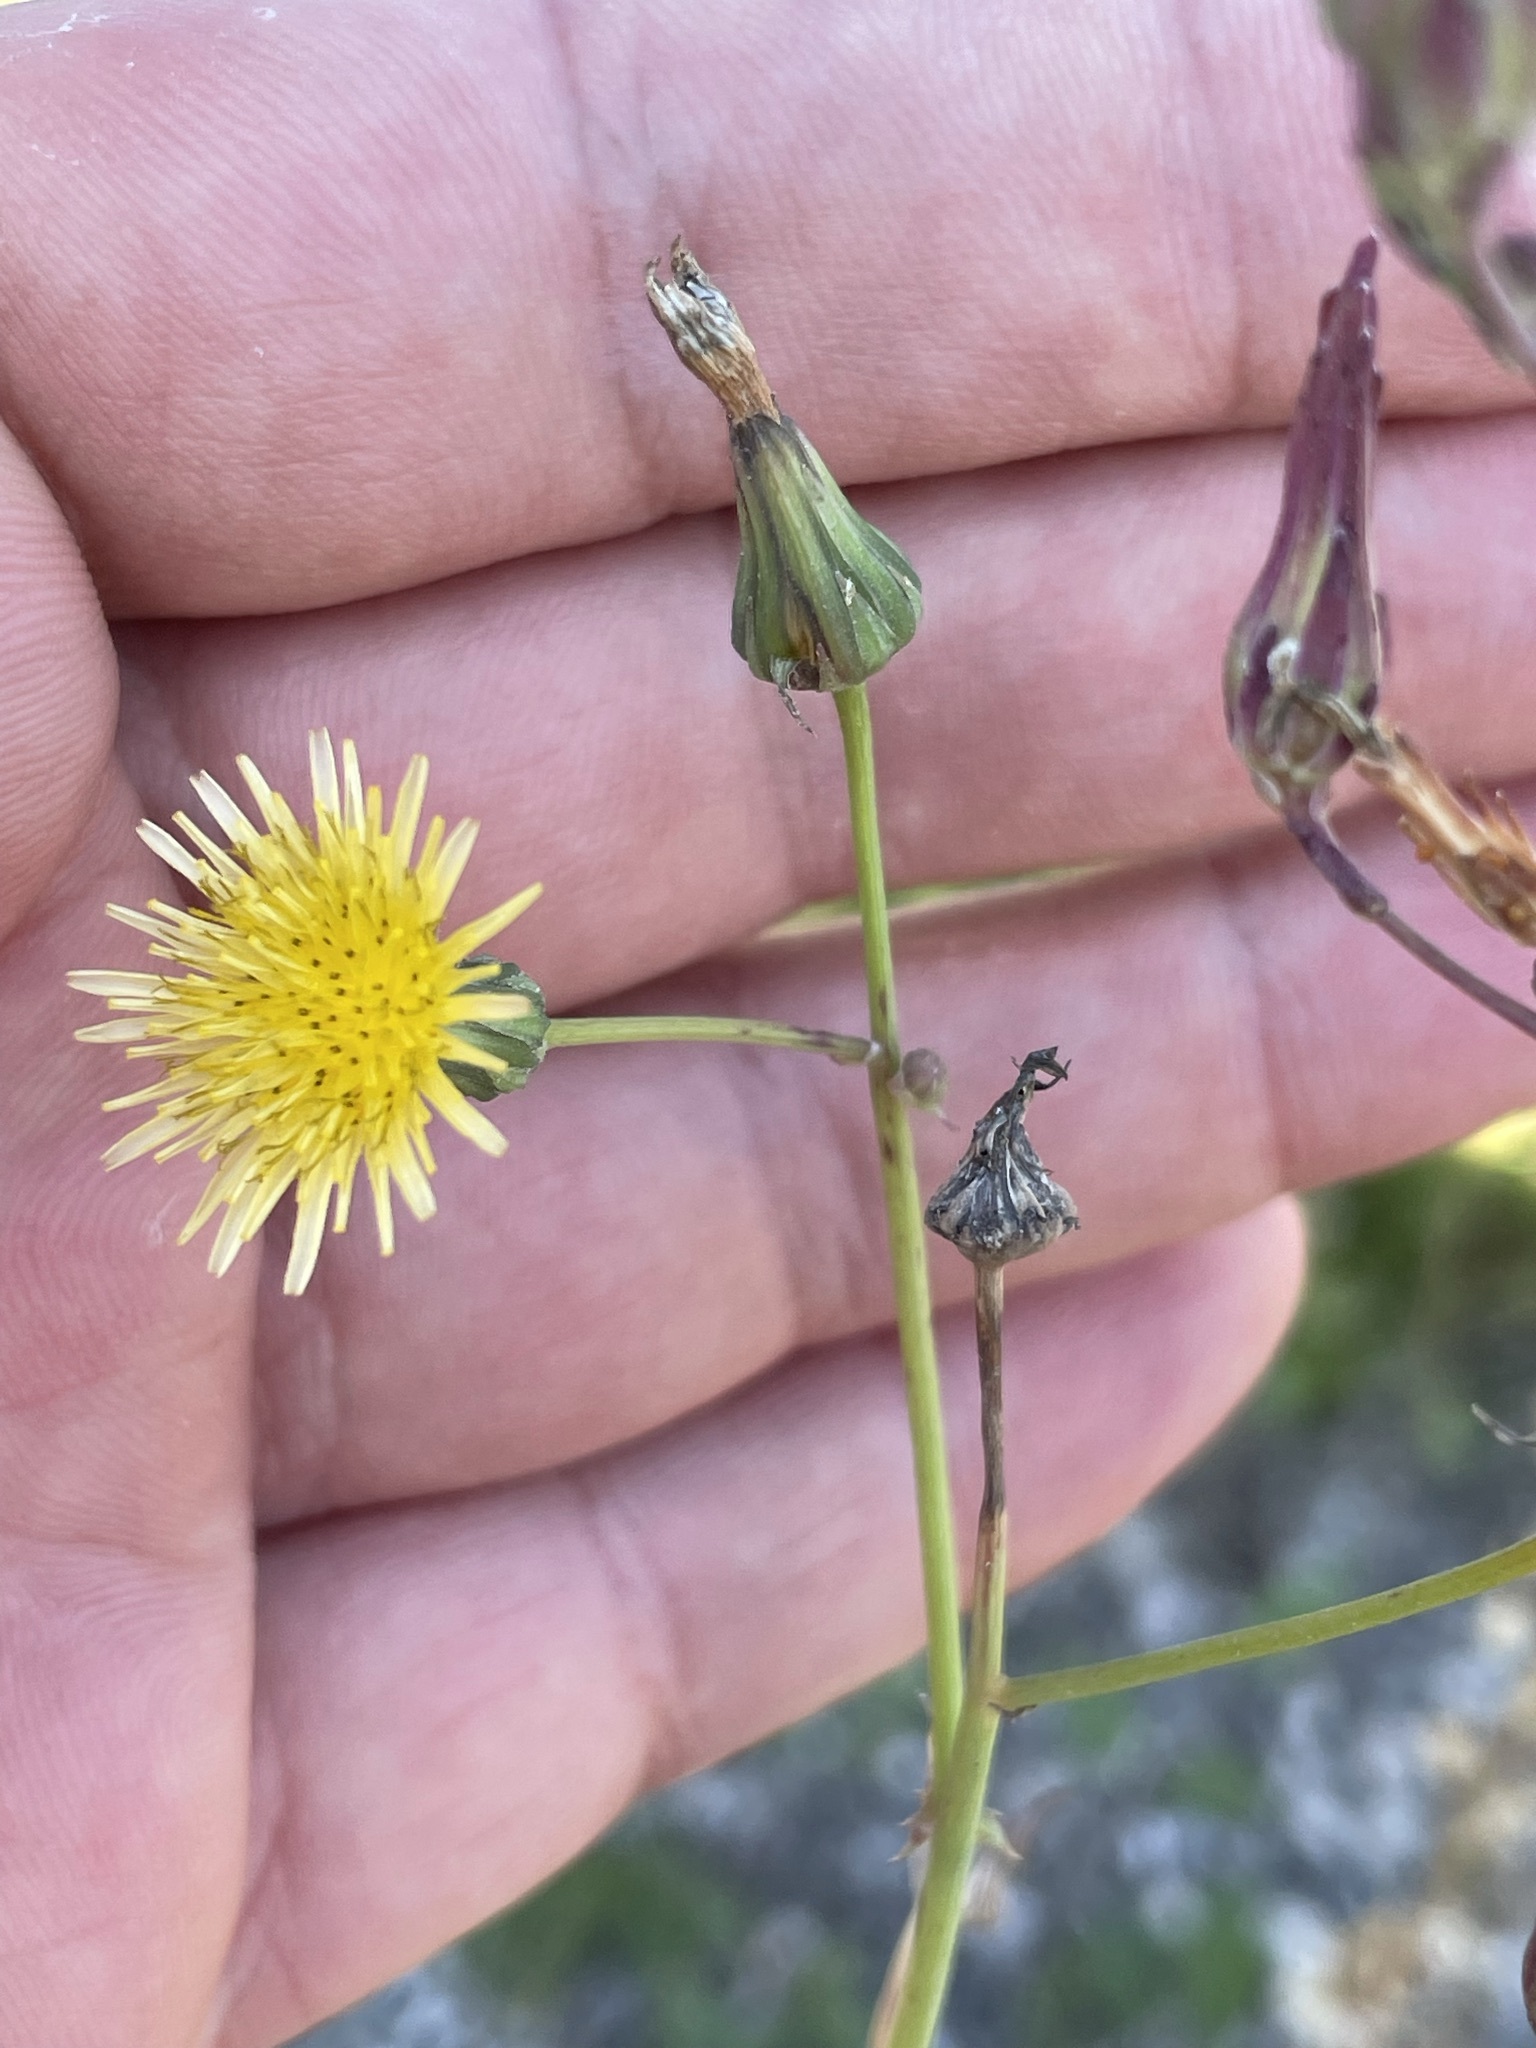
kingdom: Plantae
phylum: Tracheophyta
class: Magnoliopsida
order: Asterales
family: Asteraceae
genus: Lactuca
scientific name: Lactuca serriola
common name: Prickly lettuce
